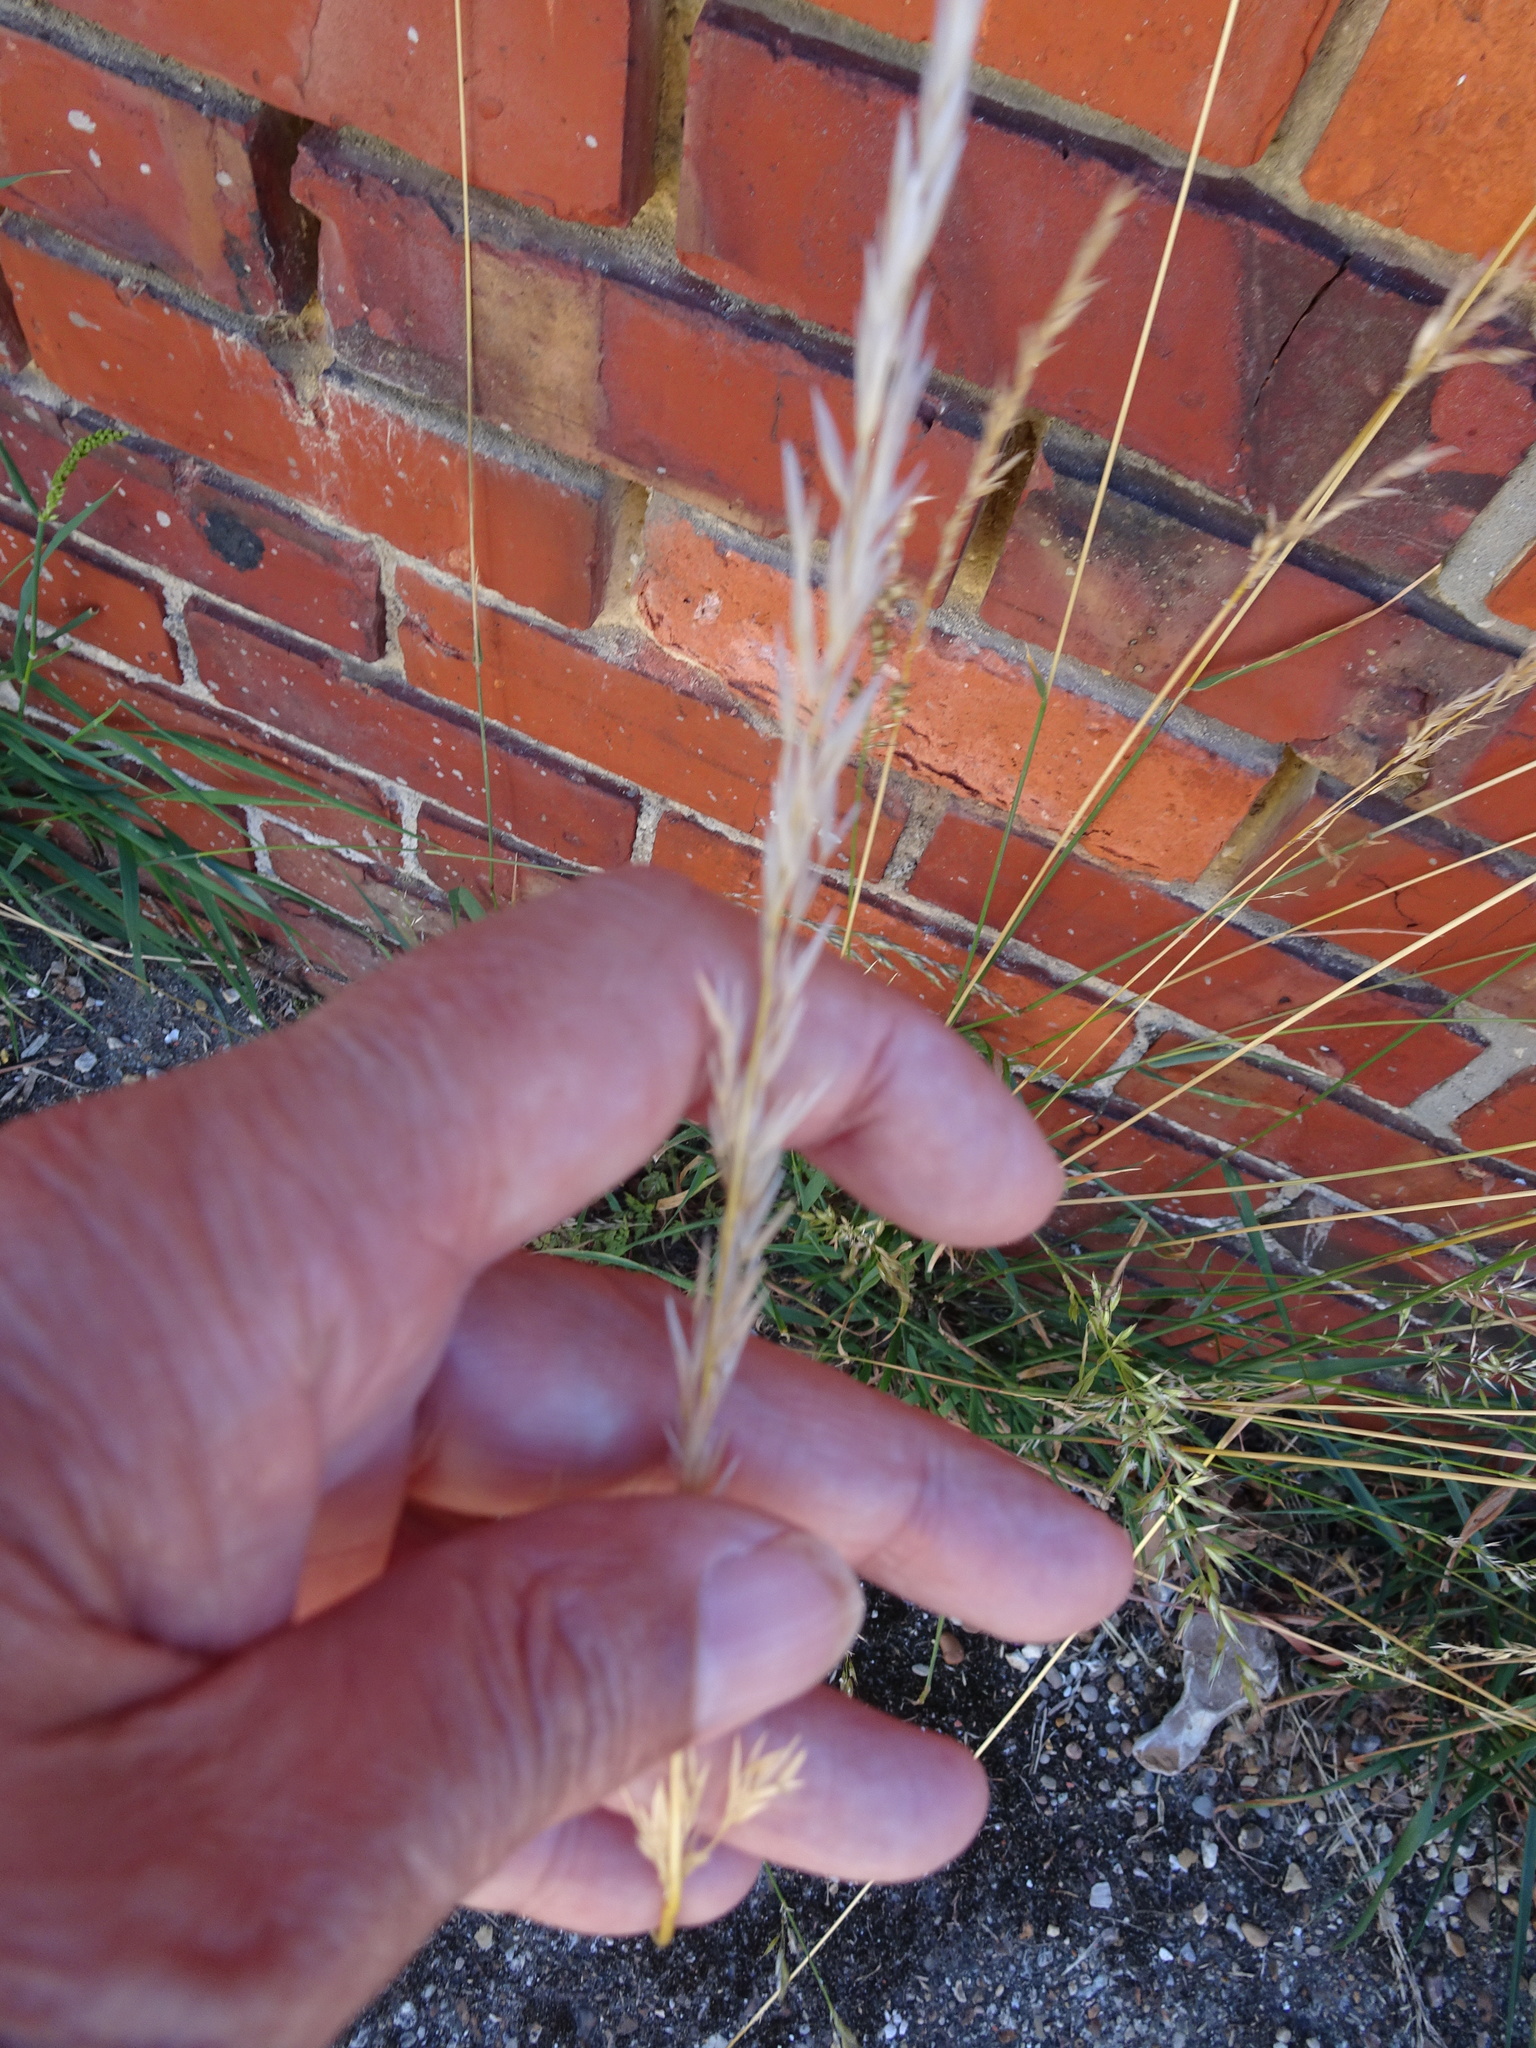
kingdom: Plantae
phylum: Tracheophyta
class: Liliopsida
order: Poales
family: Poaceae
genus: Arrhenatherum
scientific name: Arrhenatherum elatius
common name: Tall oatgrass
